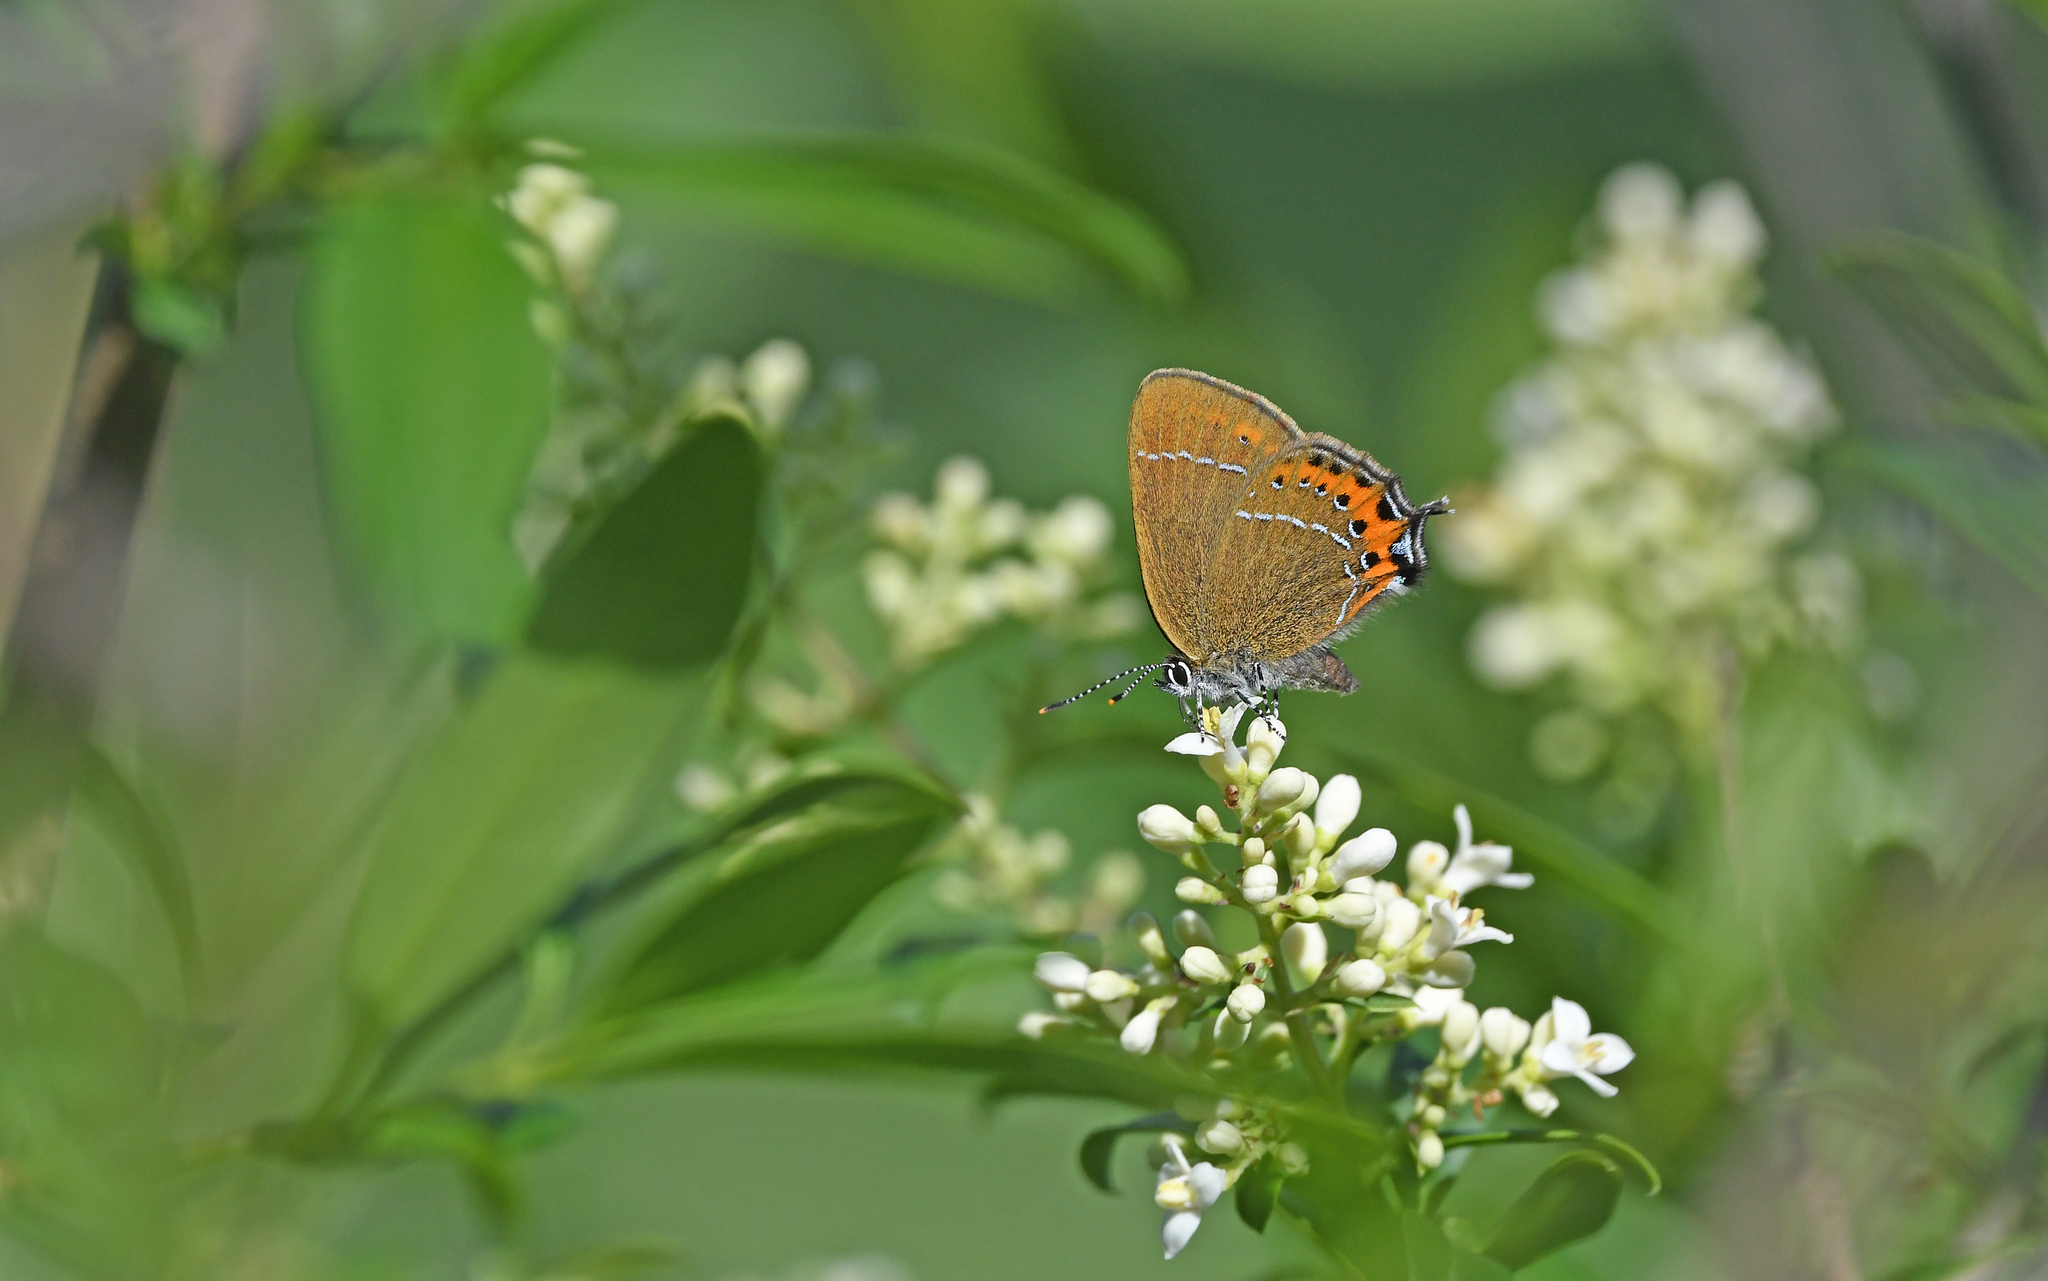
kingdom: Animalia
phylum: Arthropoda
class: Insecta
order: Lepidoptera
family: Lycaenidae
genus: Fixsenia
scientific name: Fixsenia pruni
